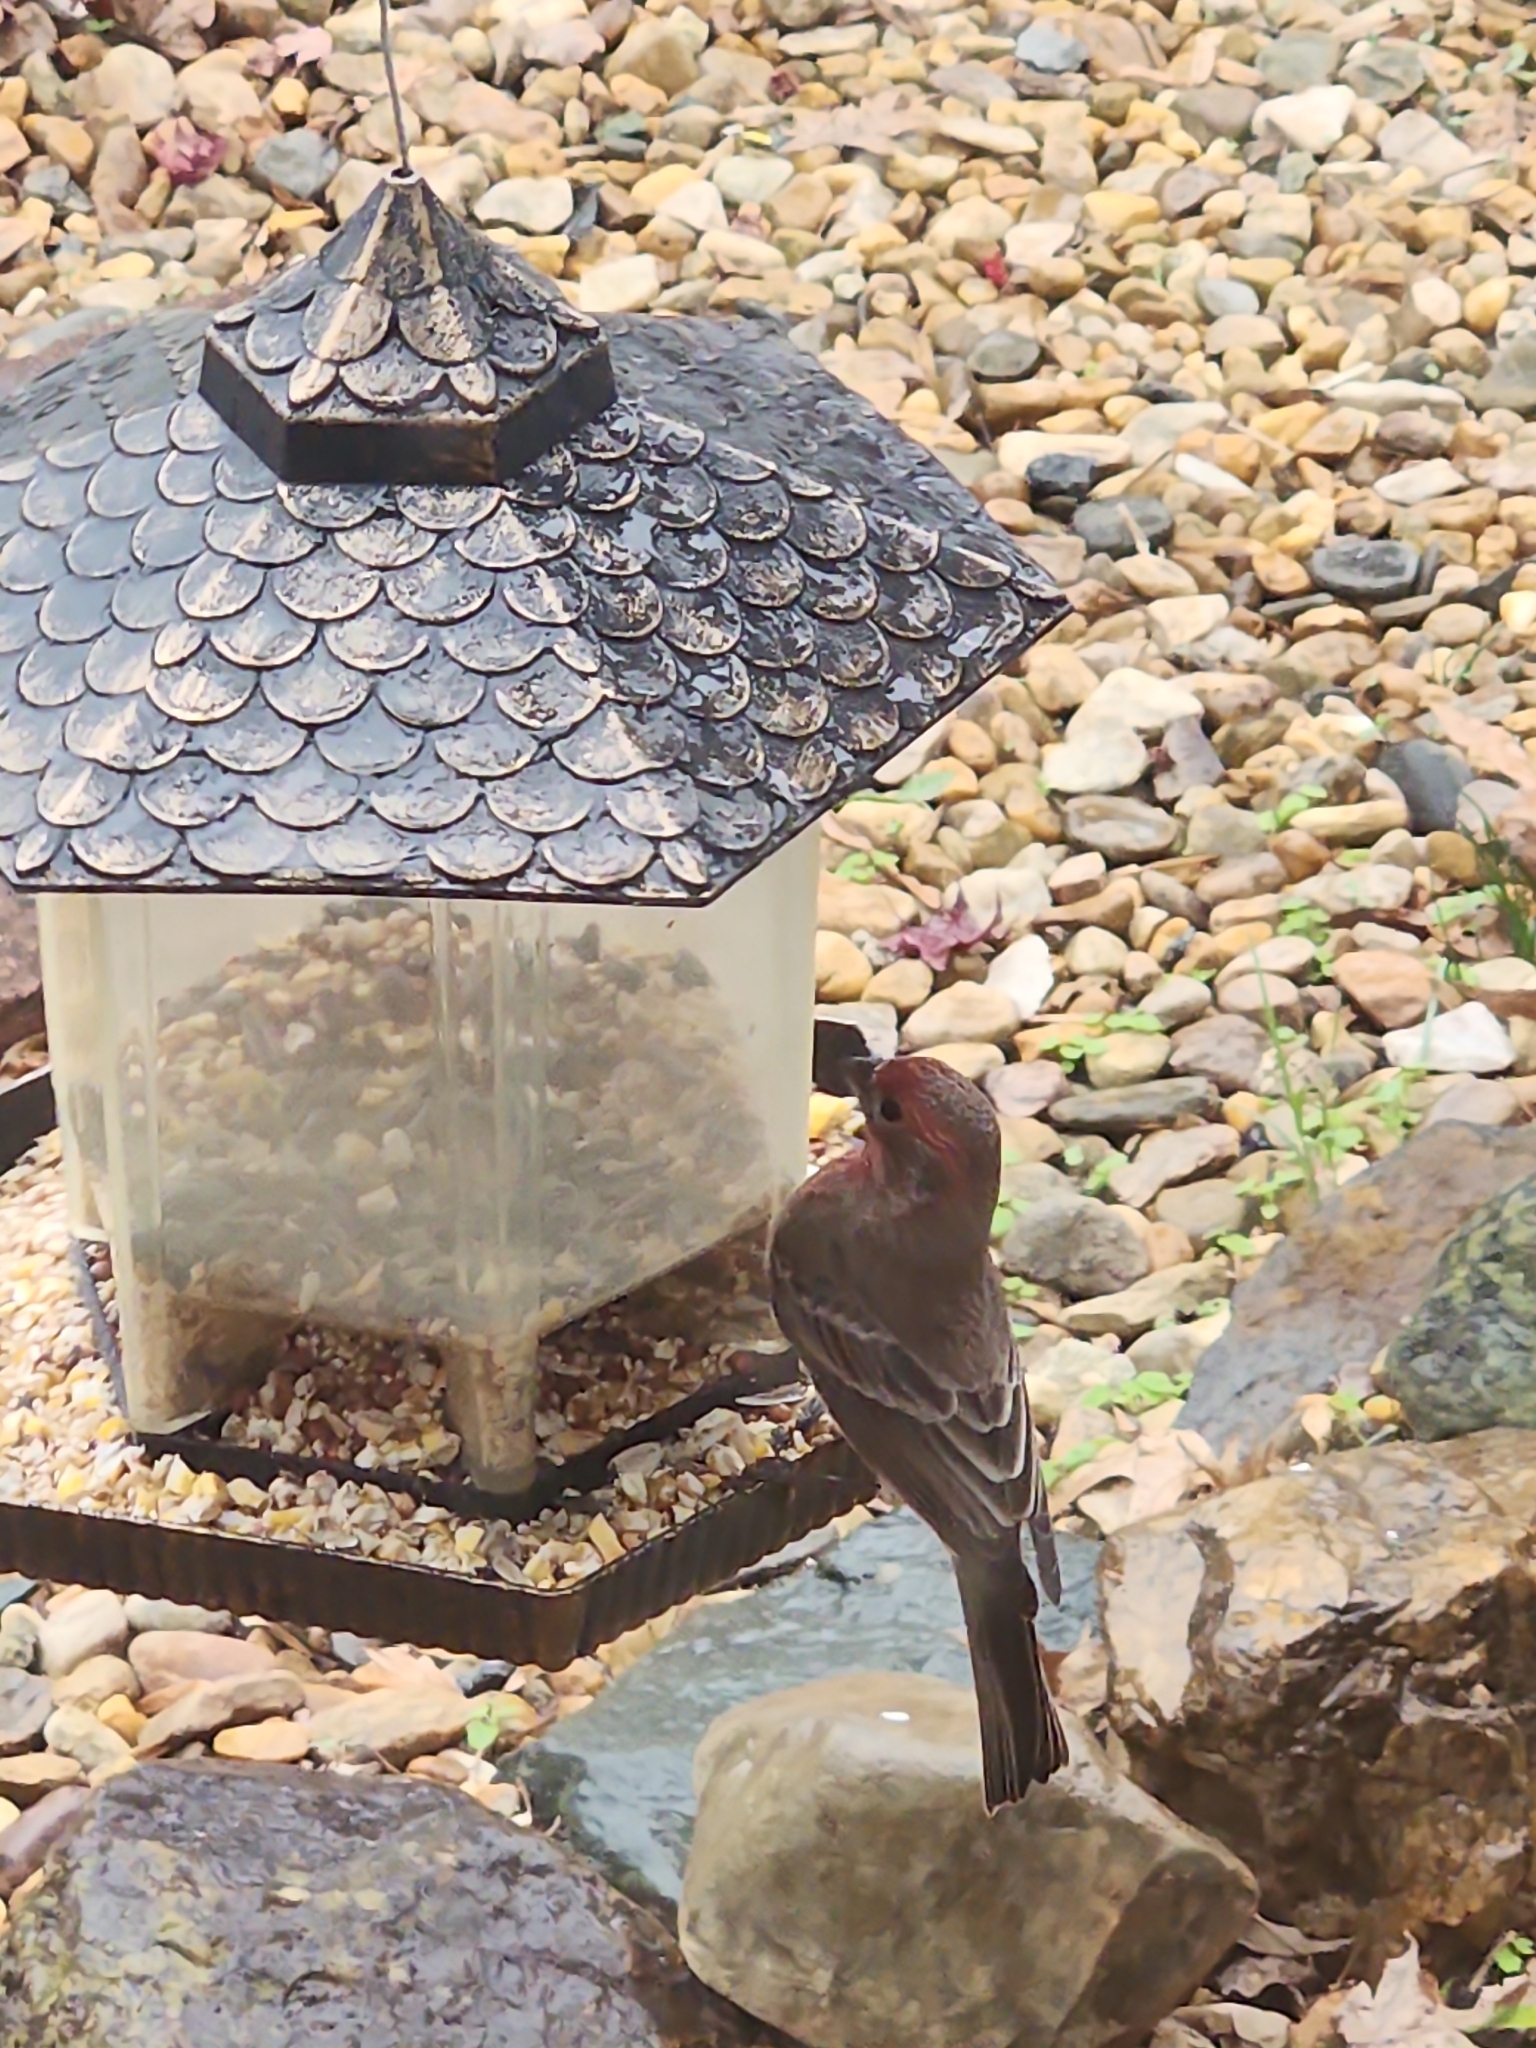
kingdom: Animalia
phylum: Chordata
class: Aves
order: Passeriformes
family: Fringillidae
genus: Haemorhous
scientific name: Haemorhous mexicanus
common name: House finch
